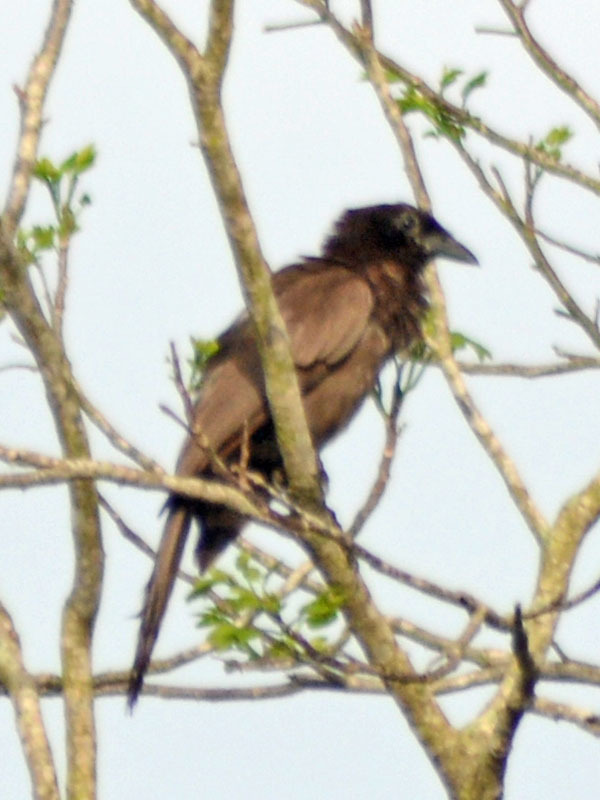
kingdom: Animalia
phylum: Chordata
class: Aves
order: Passeriformes
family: Corvidae
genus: Psilorhinus
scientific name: Psilorhinus morio
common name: Brown jay
